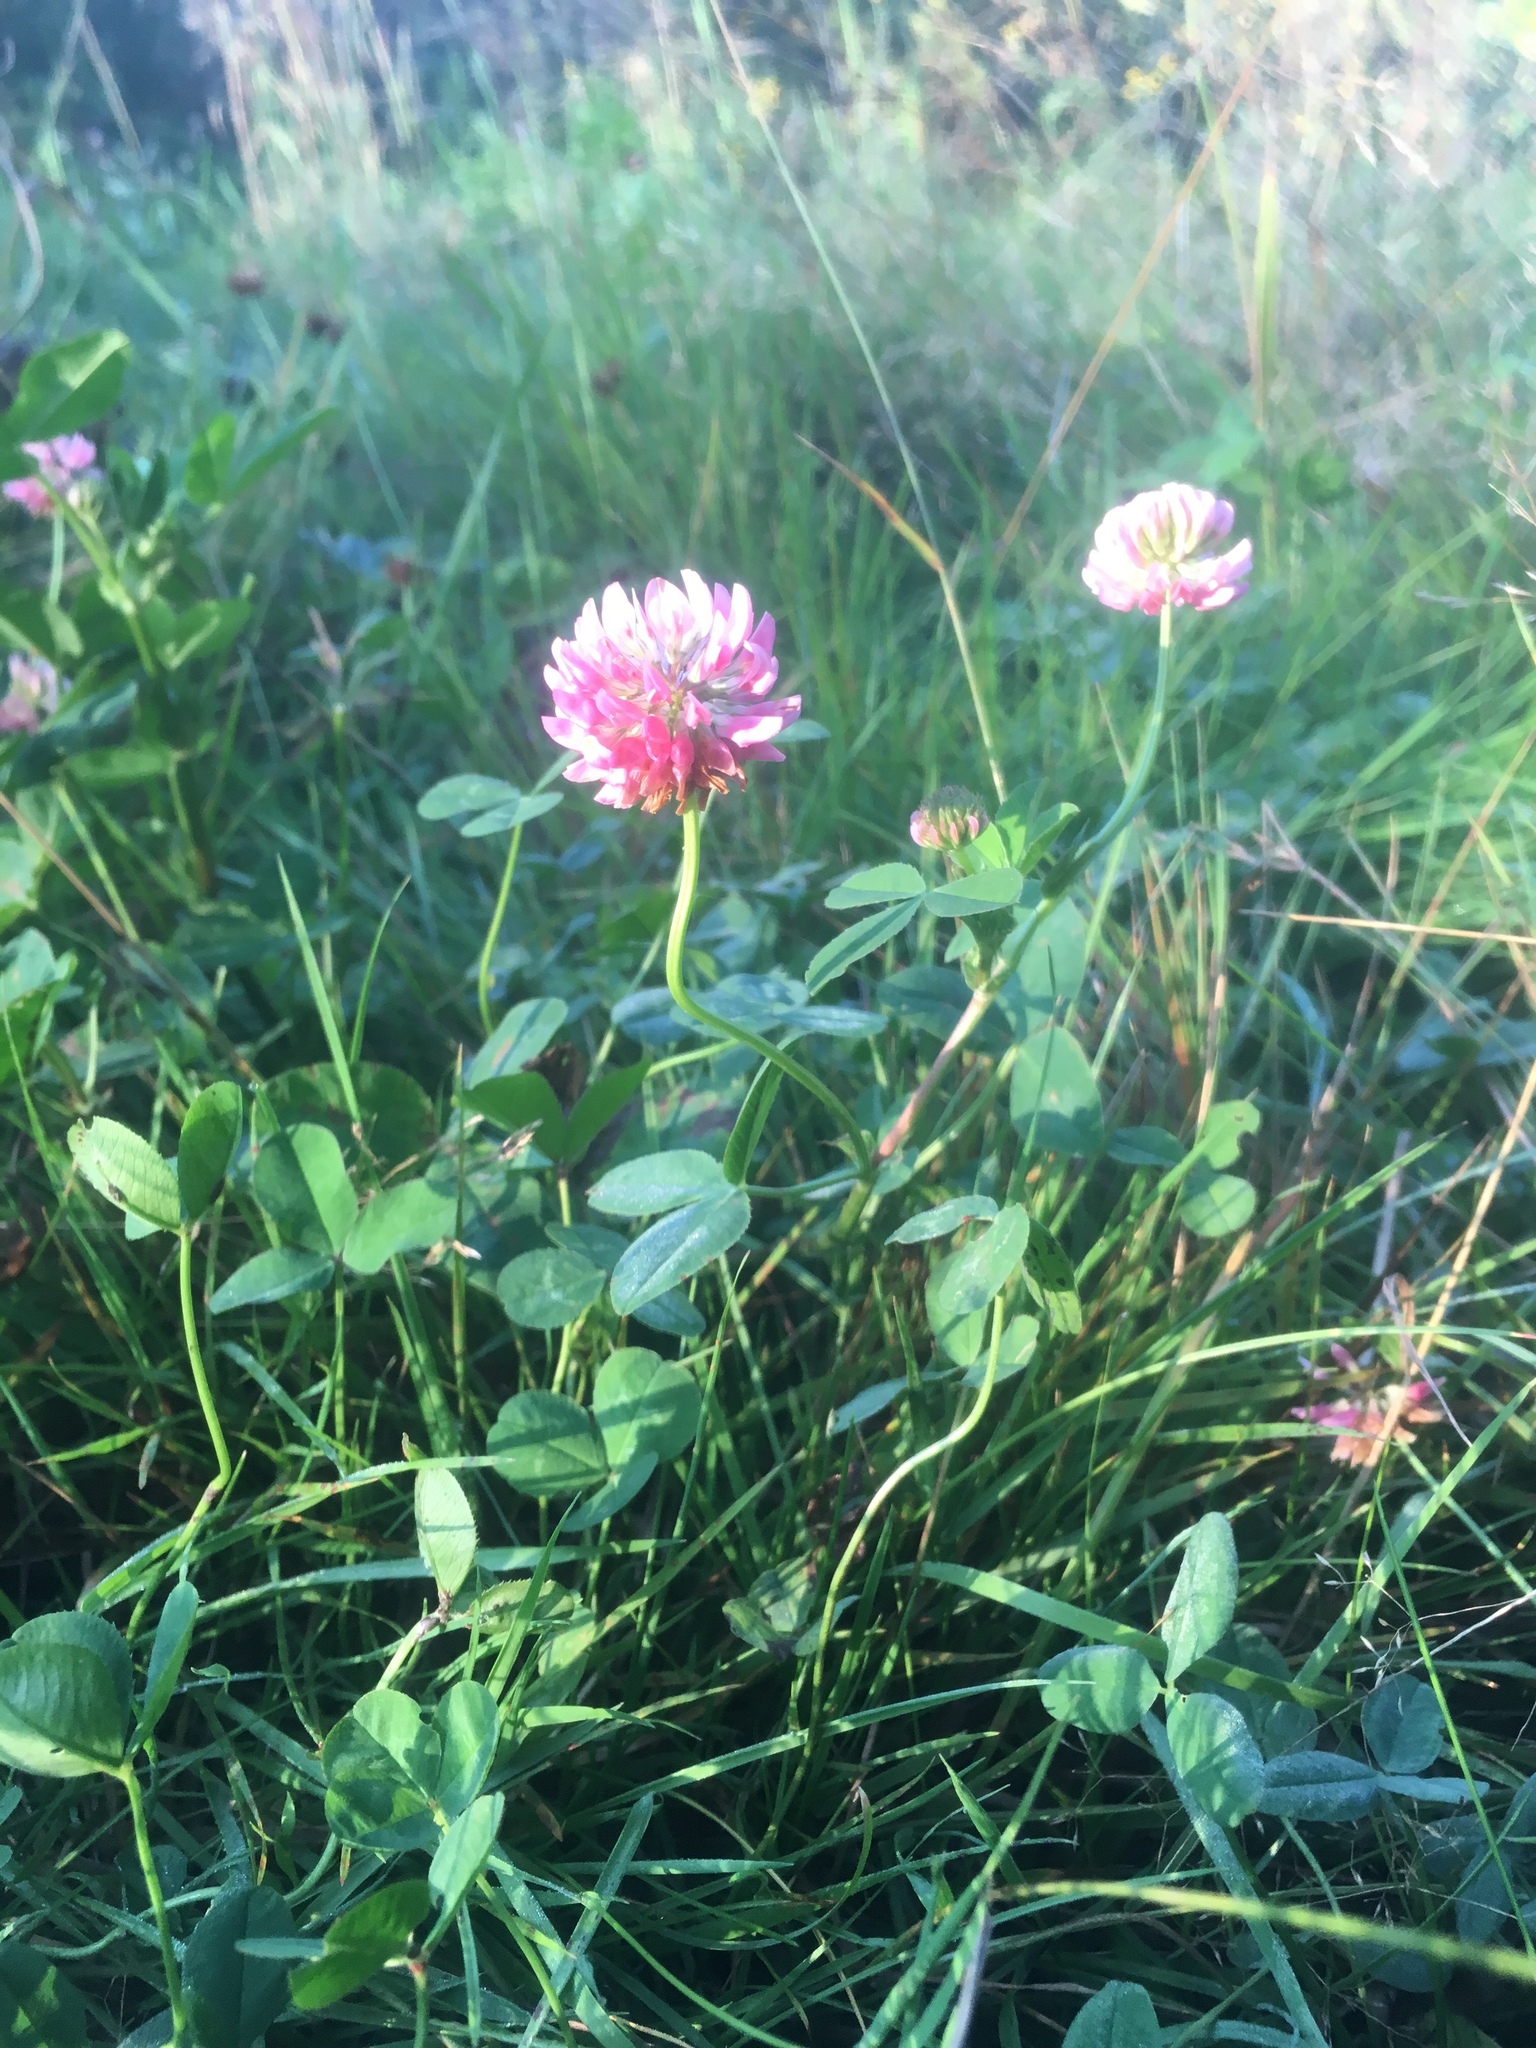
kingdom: Plantae
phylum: Tracheophyta
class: Magnoliopsida
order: Fabales
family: Fabaceae
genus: Trifolium
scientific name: Trifolium hybridum
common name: Alsike clover
